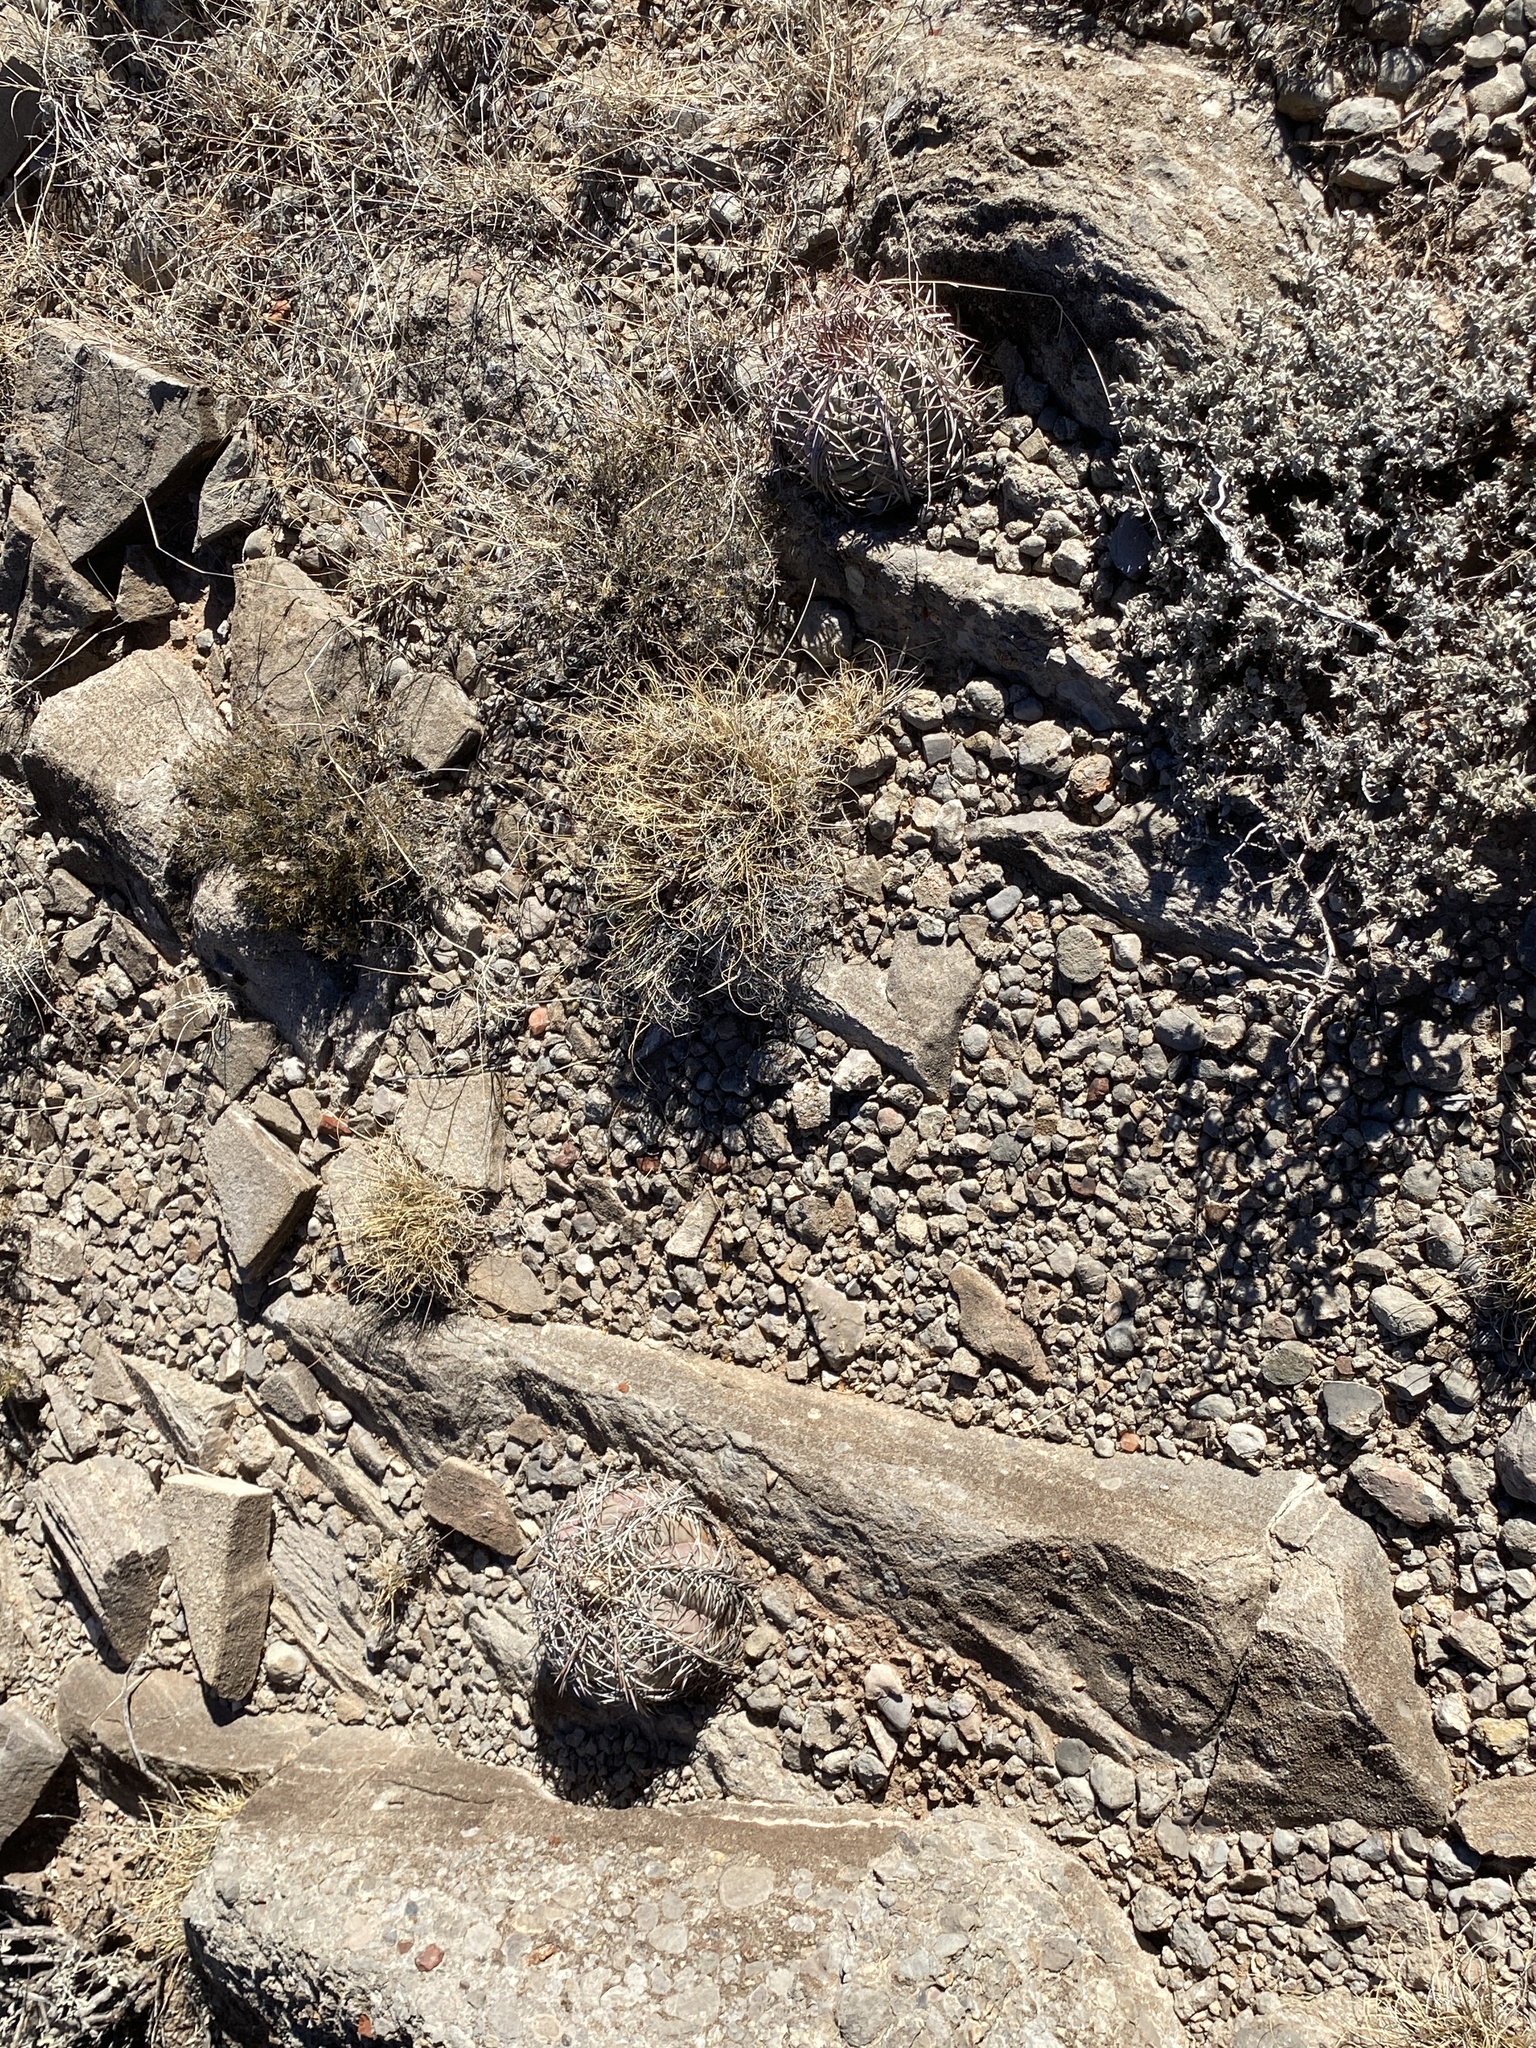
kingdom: Plantae
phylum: Tracheophyta
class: Magnoliopsida
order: Caryophyllales
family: Cactaceae
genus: Echinocactus
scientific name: Echinocactus horizonthalonius
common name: Devilshead
